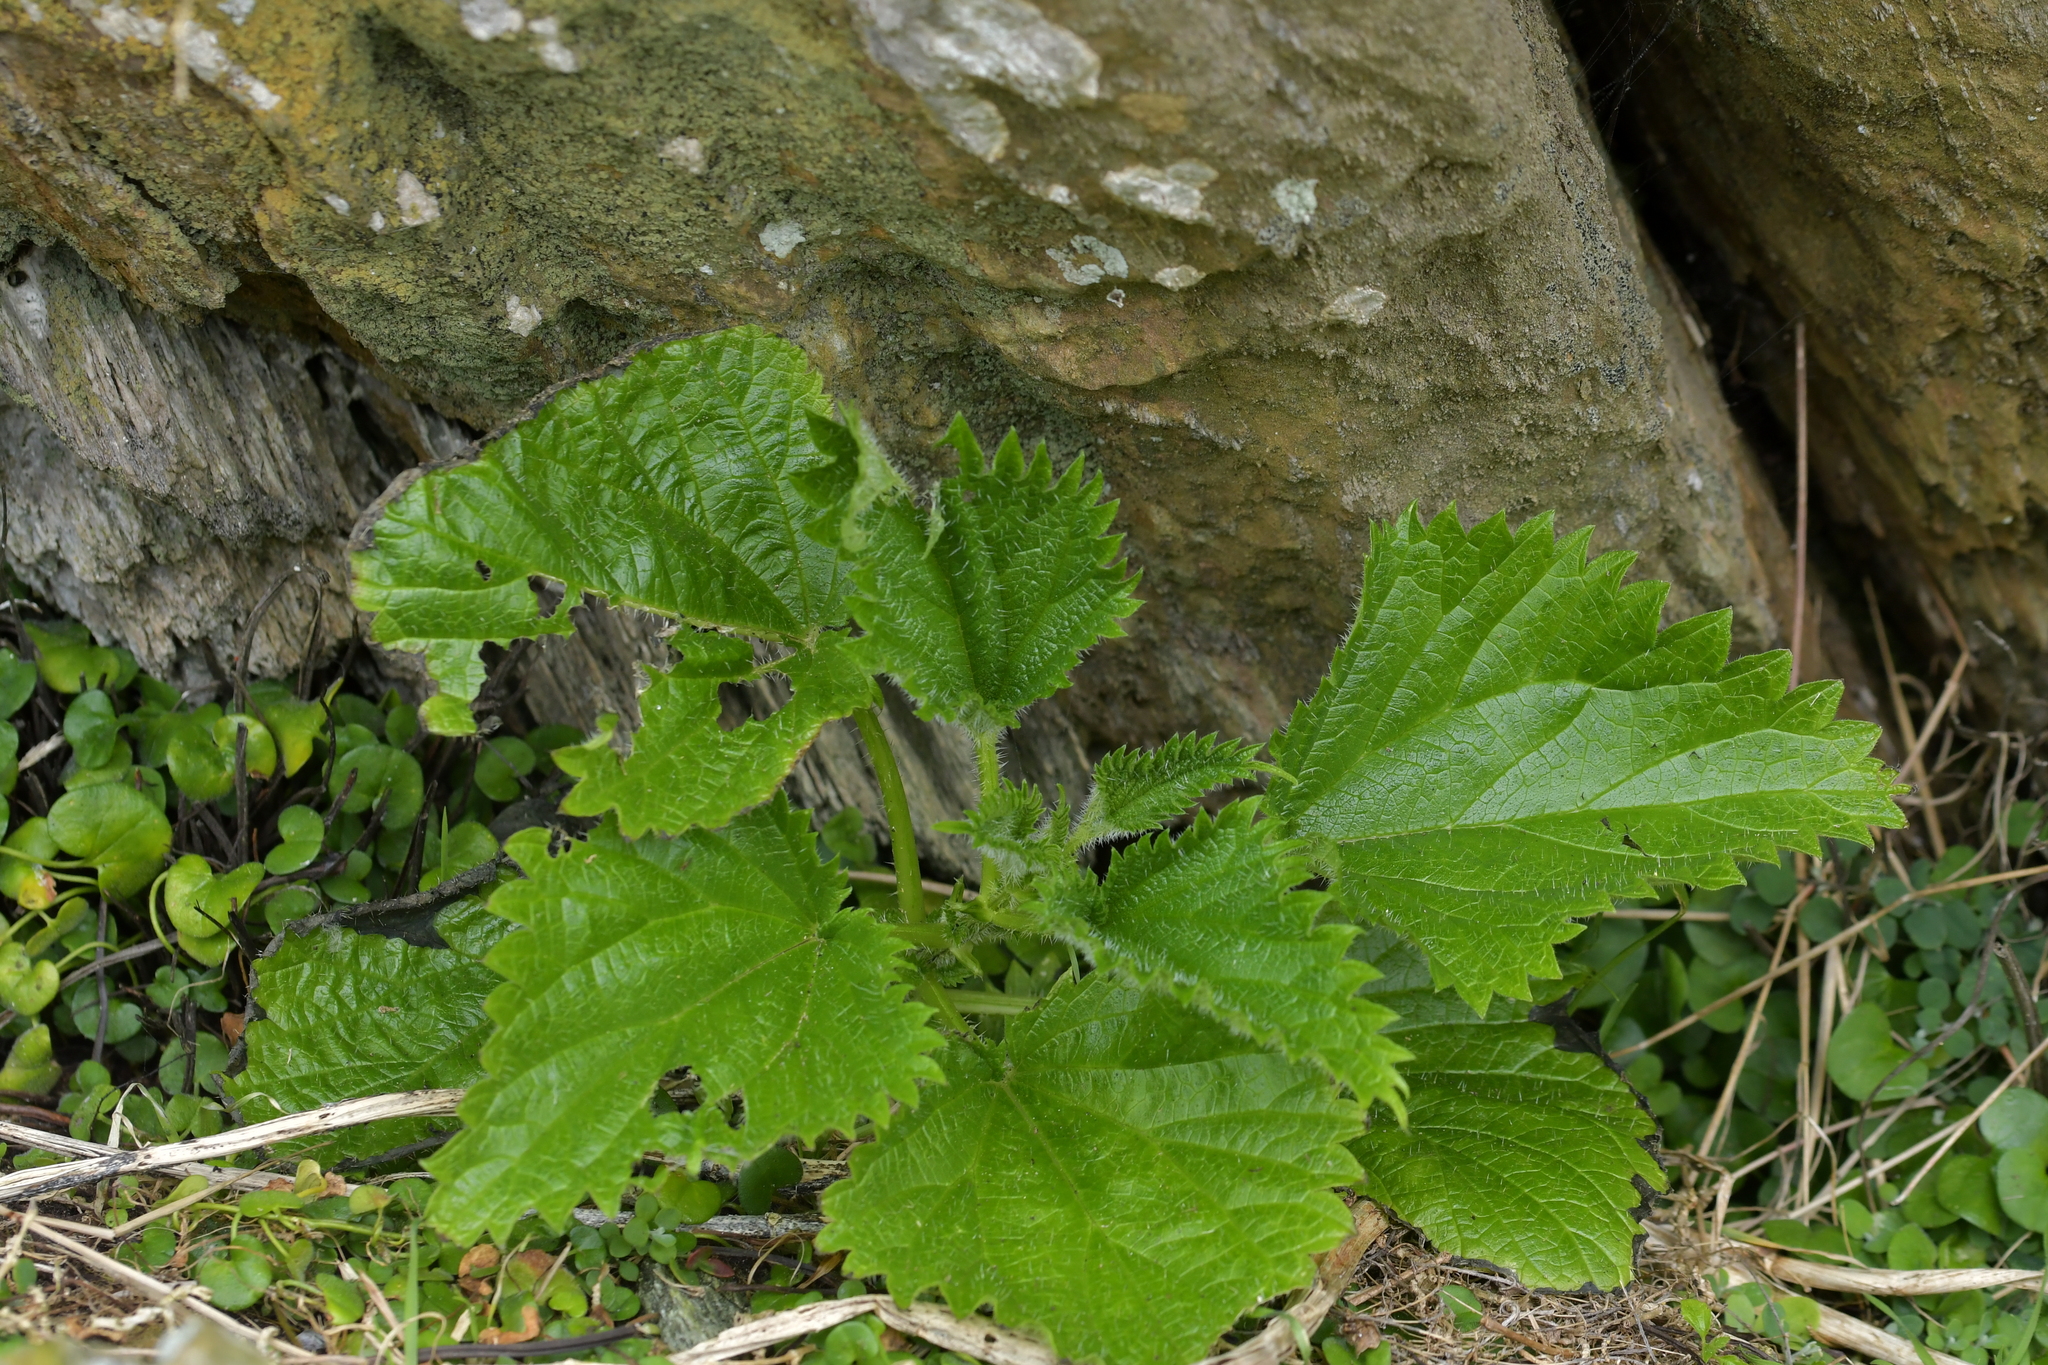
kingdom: Plantae
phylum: Tracheophyta
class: Magnoliopsida
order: Rosales
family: Urticaceae
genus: Urtica
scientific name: Urtica australis
